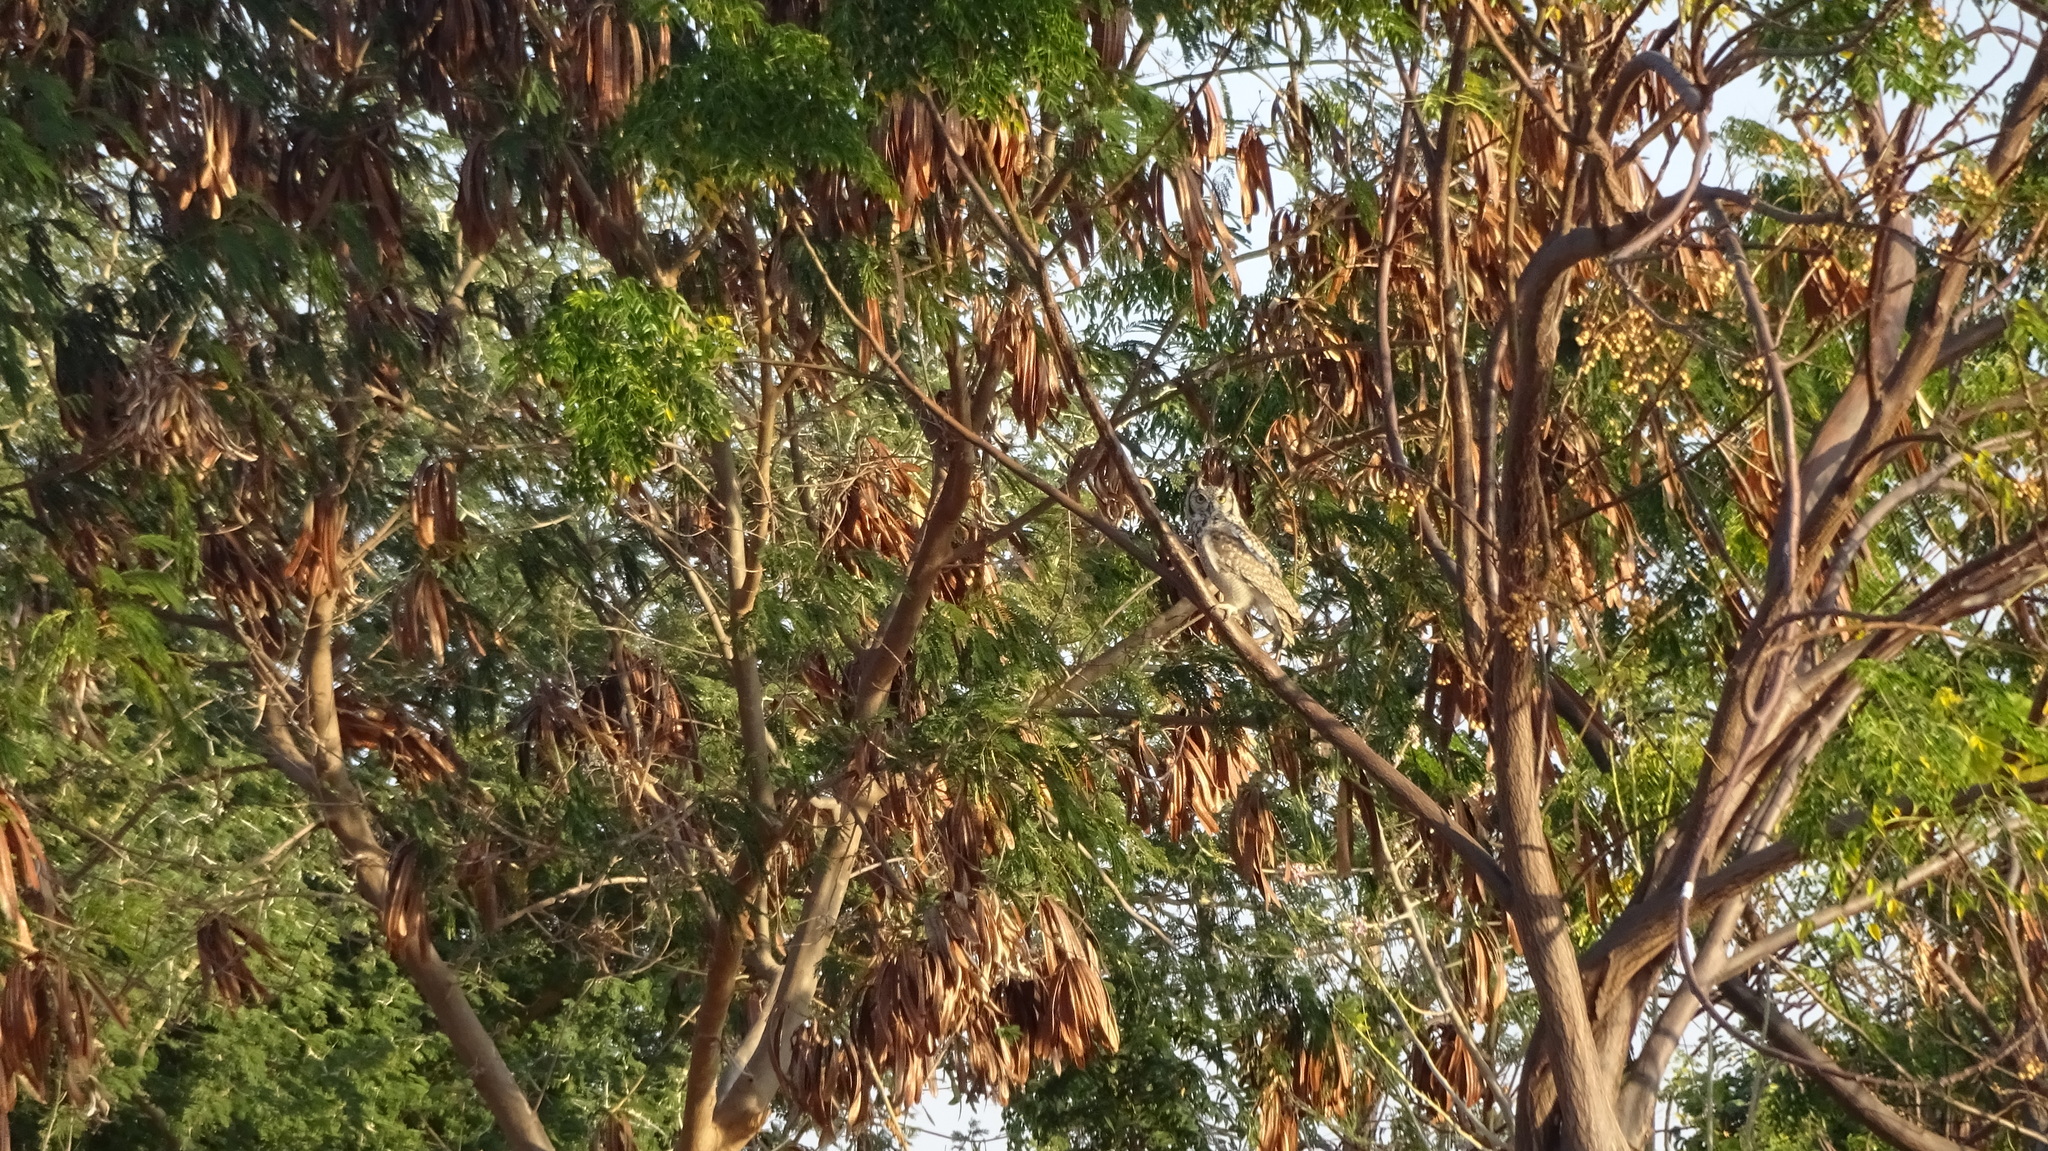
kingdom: Animalia
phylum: Chordata
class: Aves
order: Strigiformes
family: Strigidae
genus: Bubo
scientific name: Bubo africanus
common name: Spotted eagle-owl
